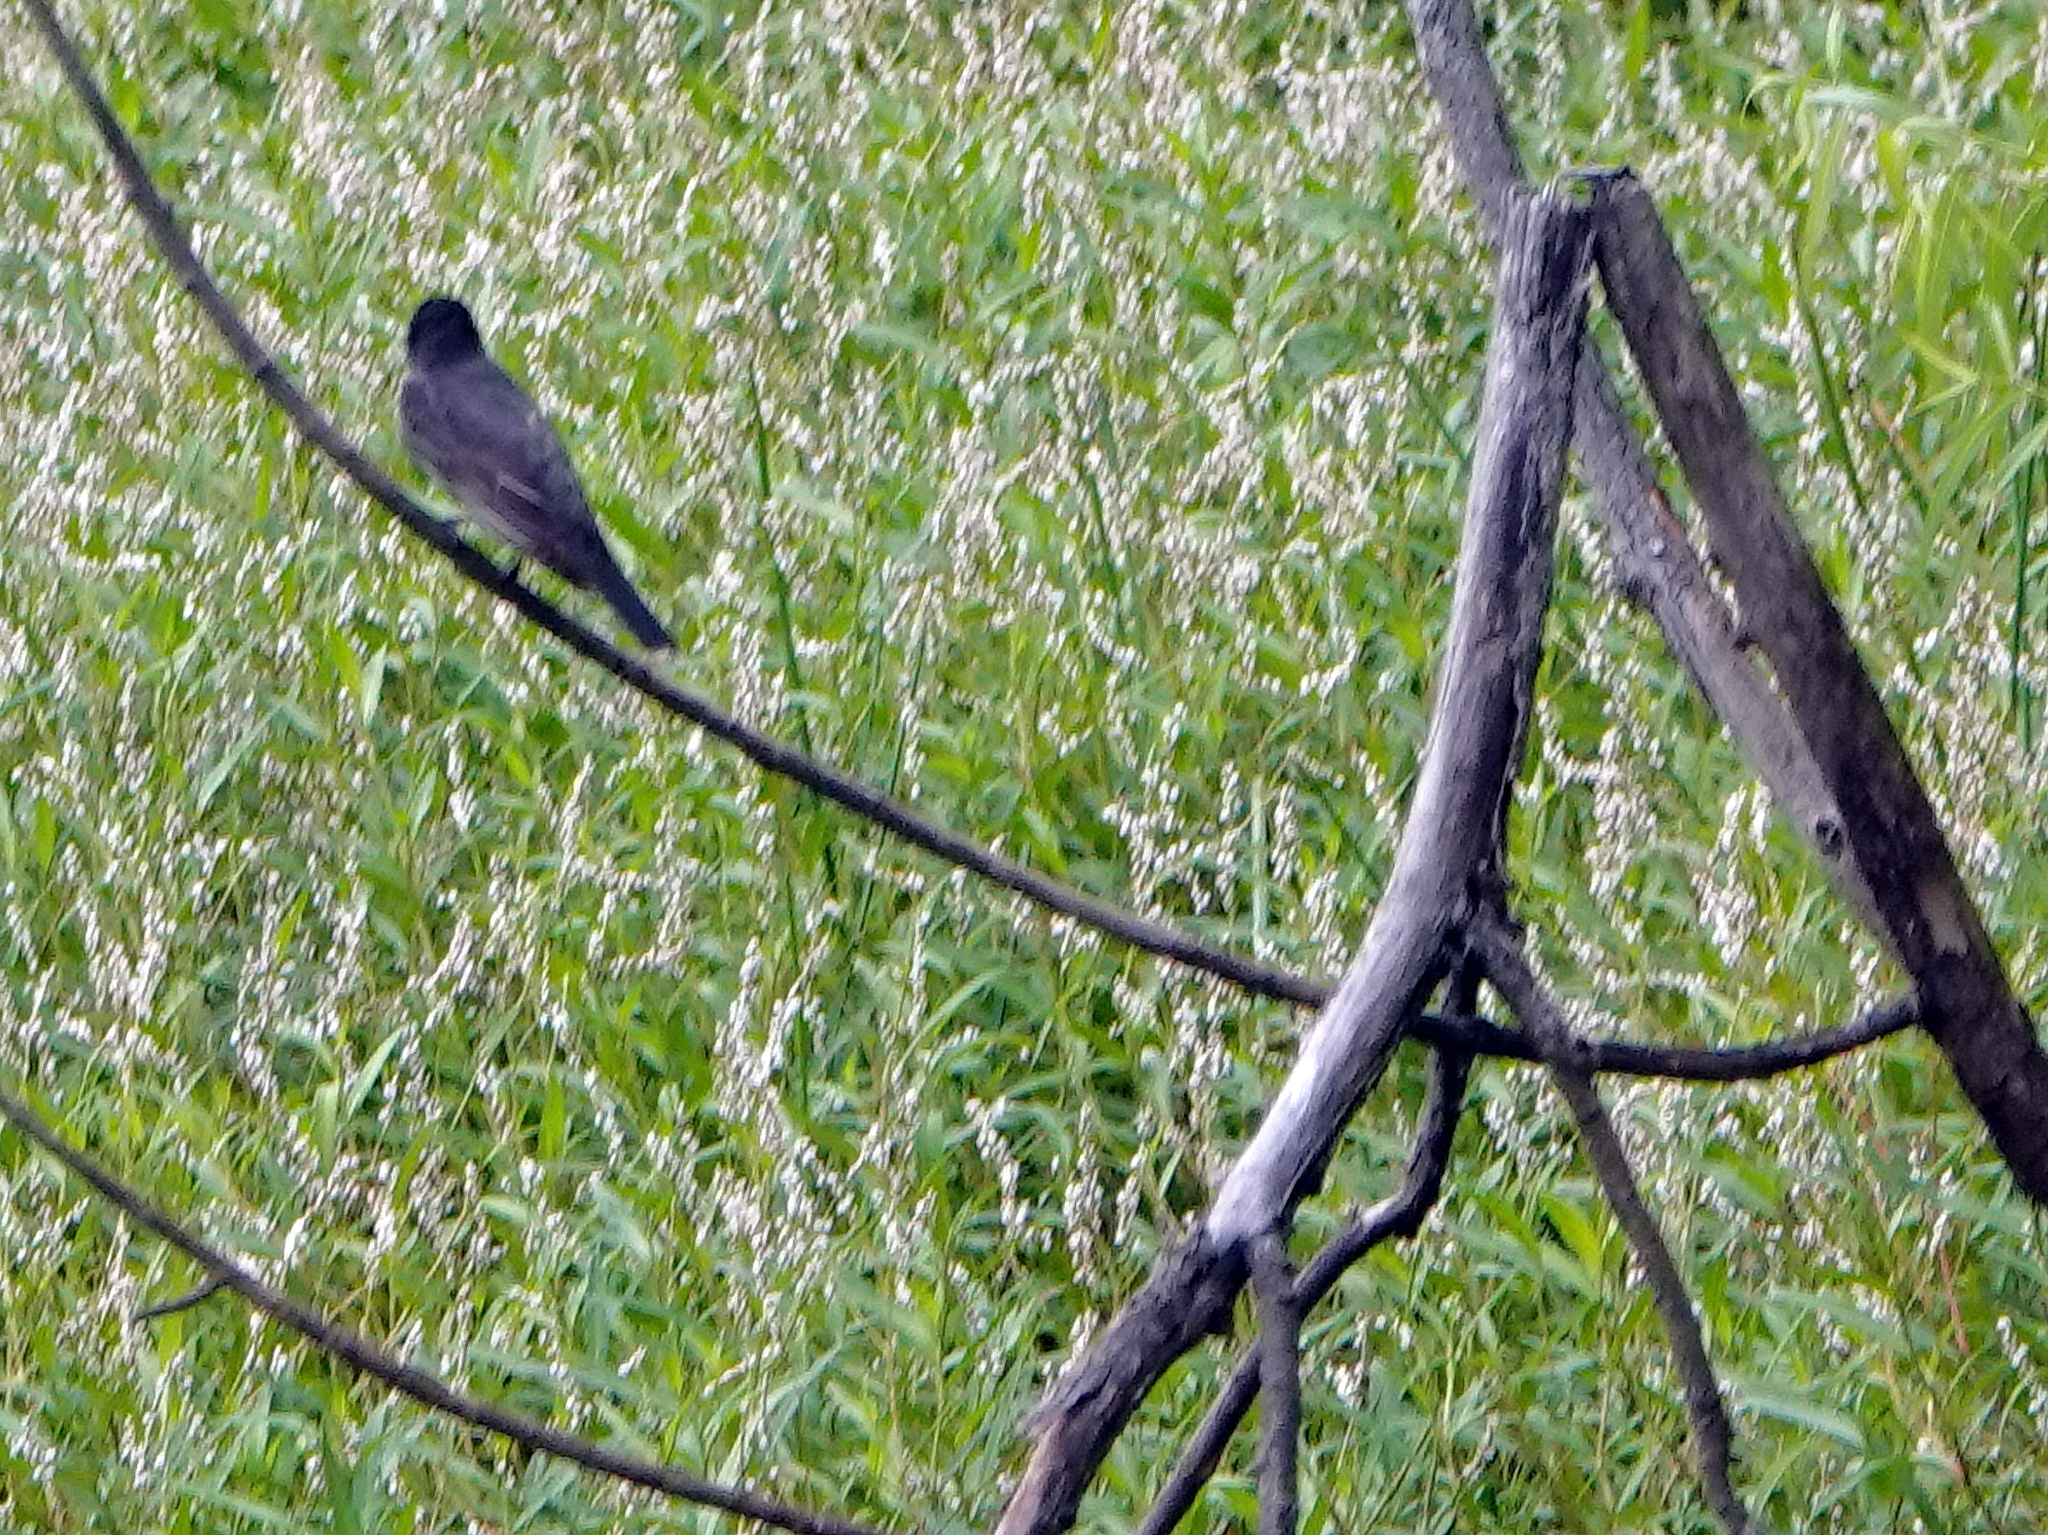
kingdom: Animalia
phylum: Chordata
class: Aves
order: Passeriformes
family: Tyrannidae
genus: Tyrannus
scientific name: Tyrannus tyrannus
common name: Eastern kingbird
